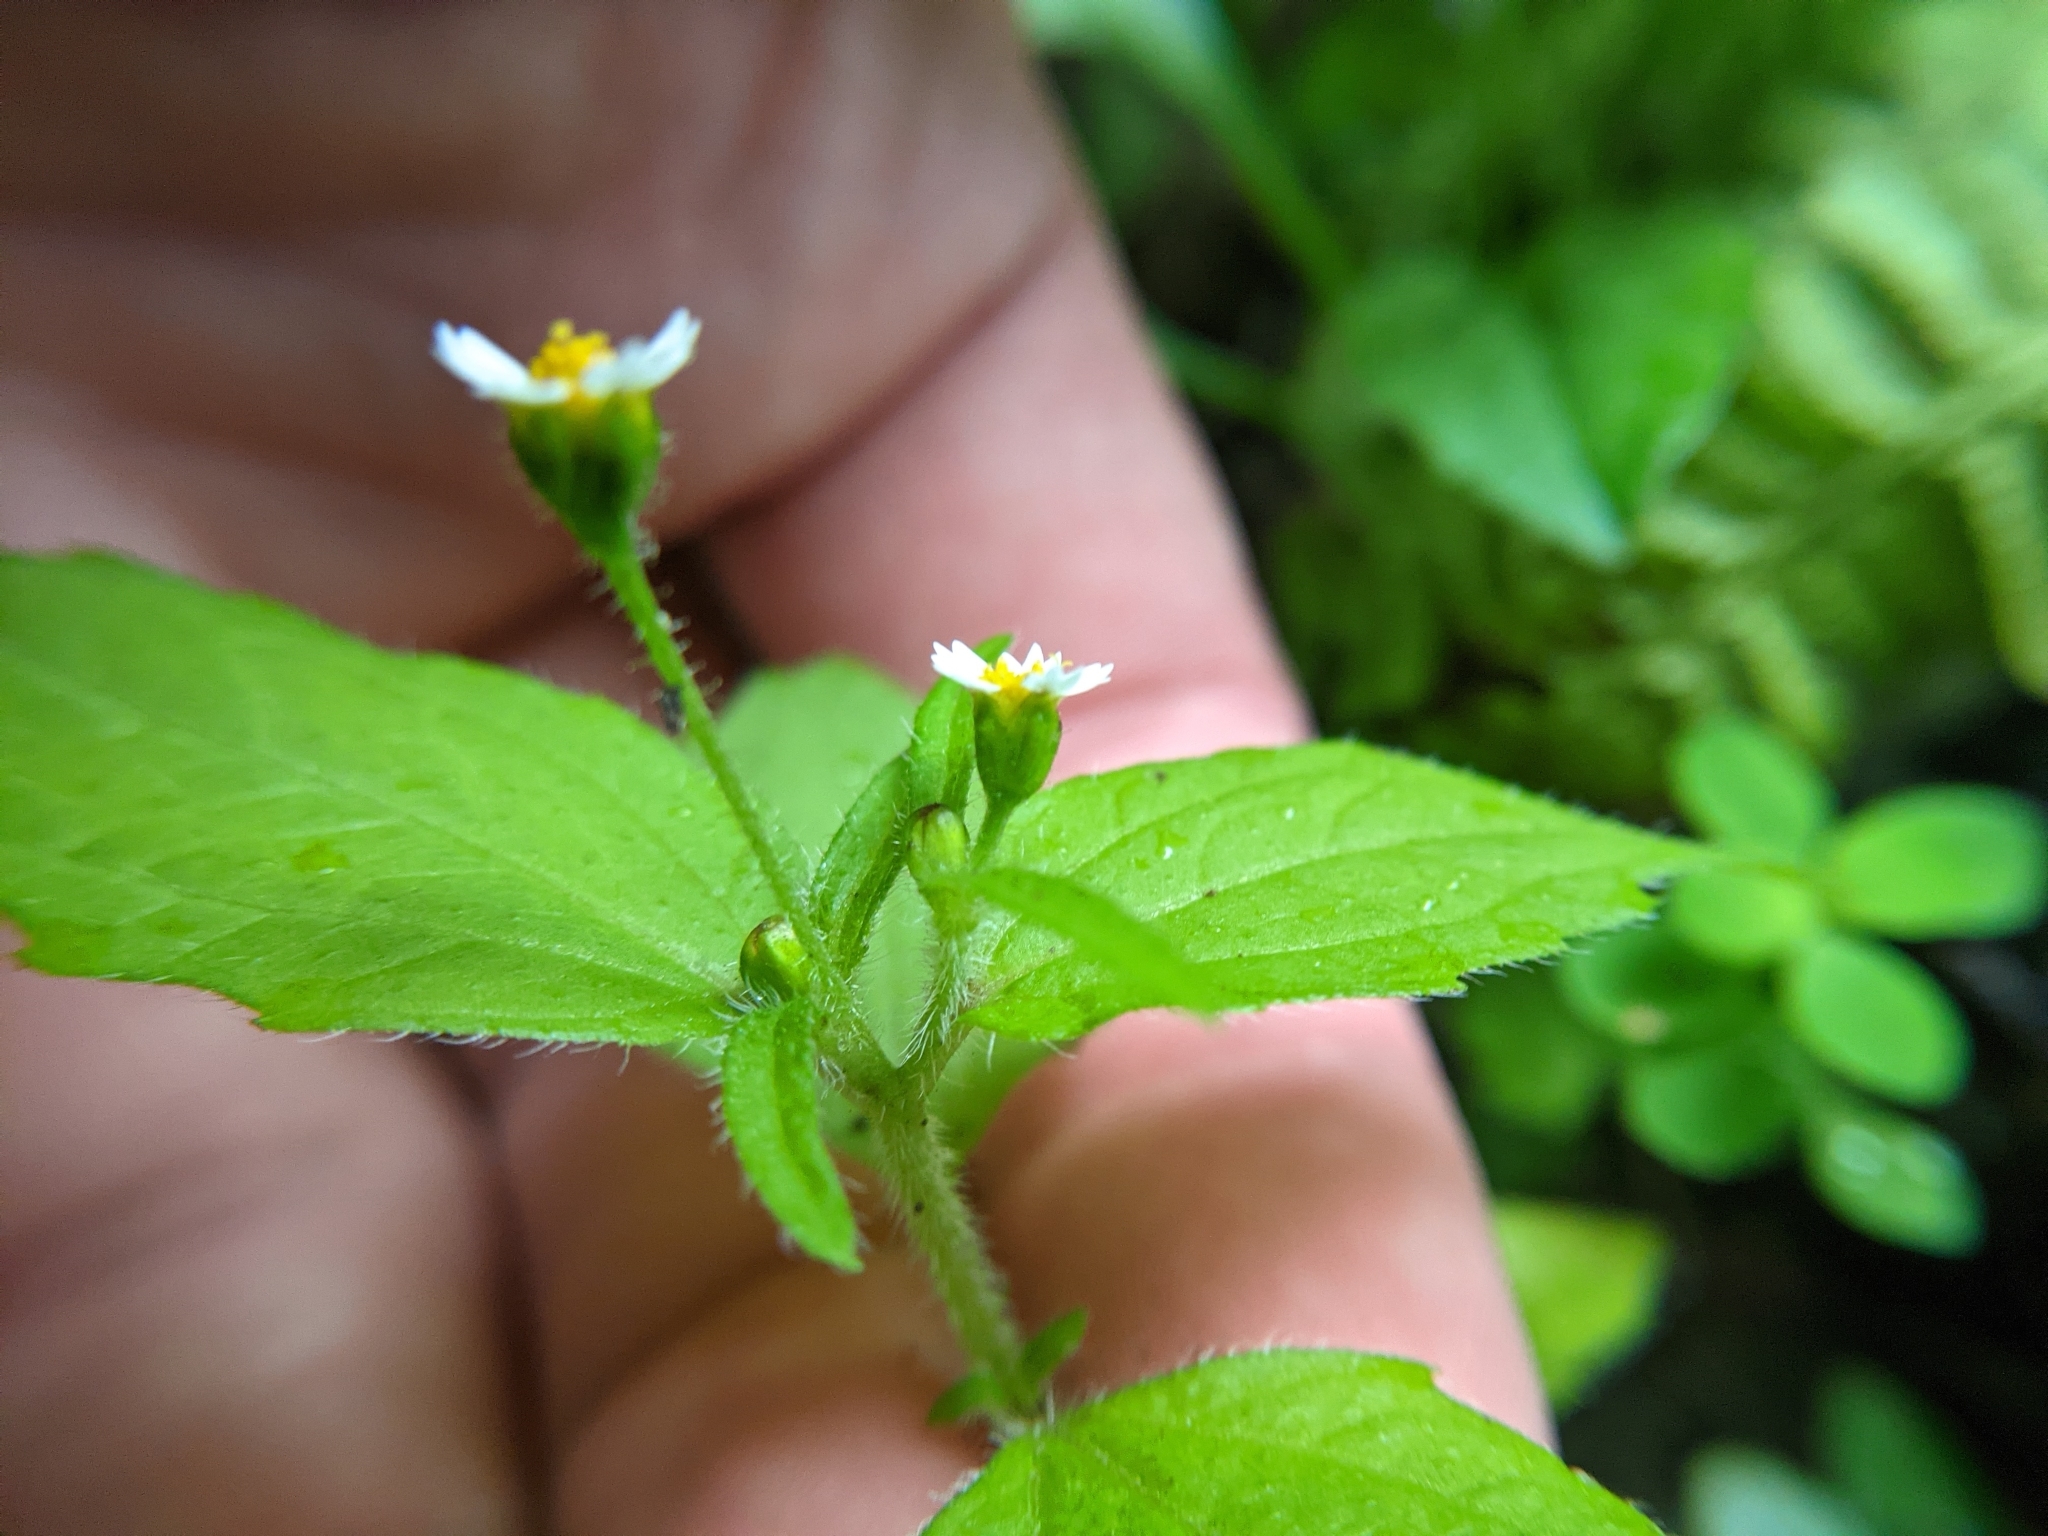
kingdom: Plantae
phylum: Tracheophyta
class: Magnoliopsida
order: Asterales
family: Asteraceae
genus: Galinsoga
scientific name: Galinsoga quadriradiata
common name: Shaggy soldier
